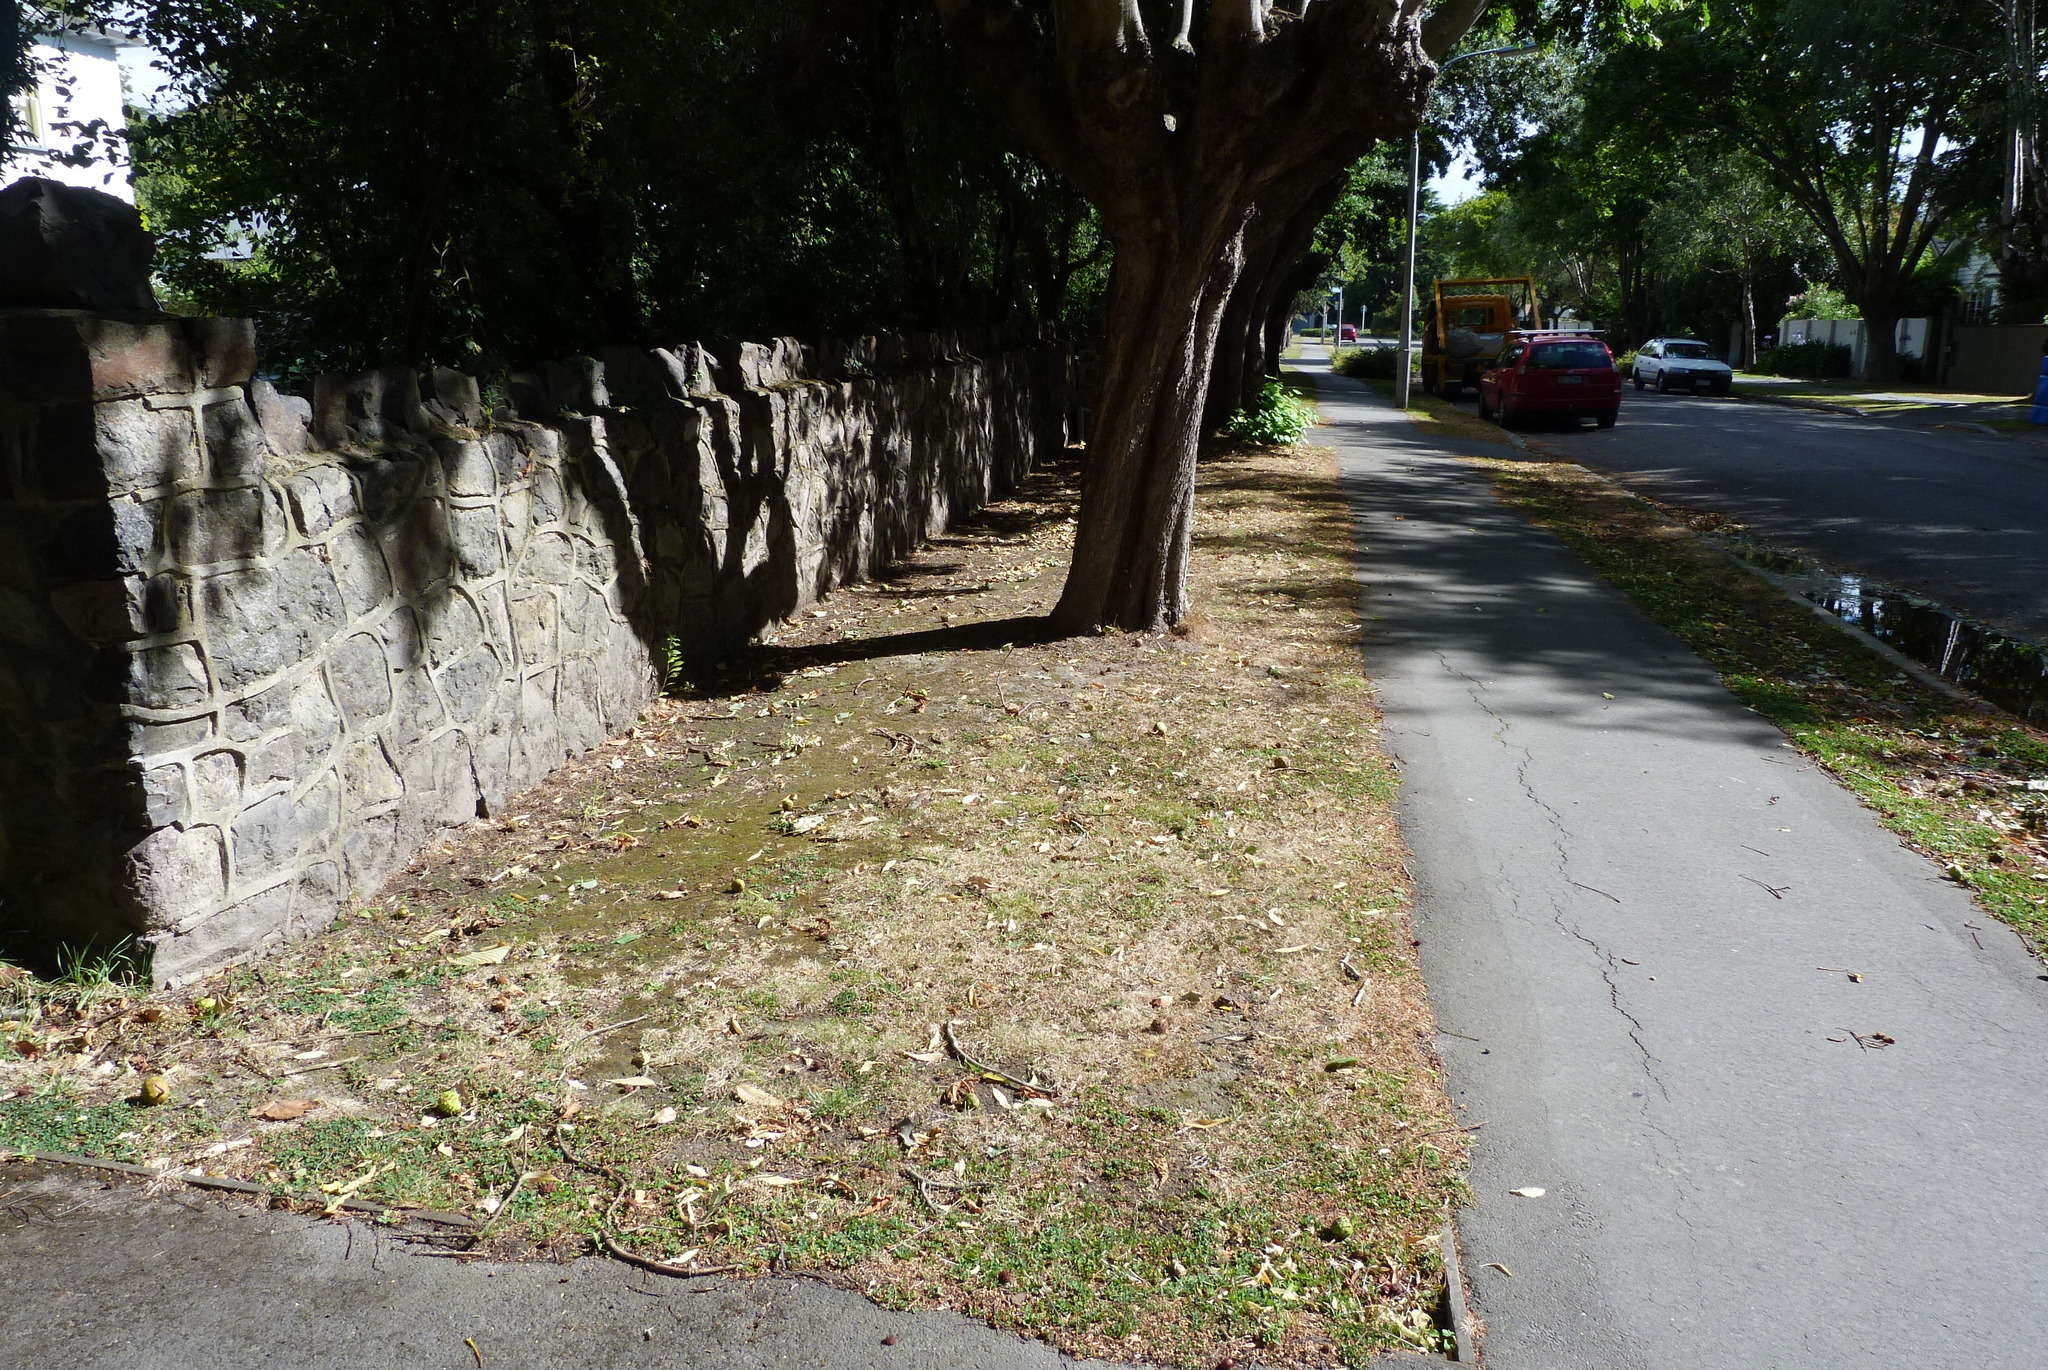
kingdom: Plantae
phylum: Tracheophyta
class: Magnoliopsida
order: Solanales
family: Convolvulaceae
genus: Dichondra
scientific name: Dichondra repens
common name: Kidneyweed
